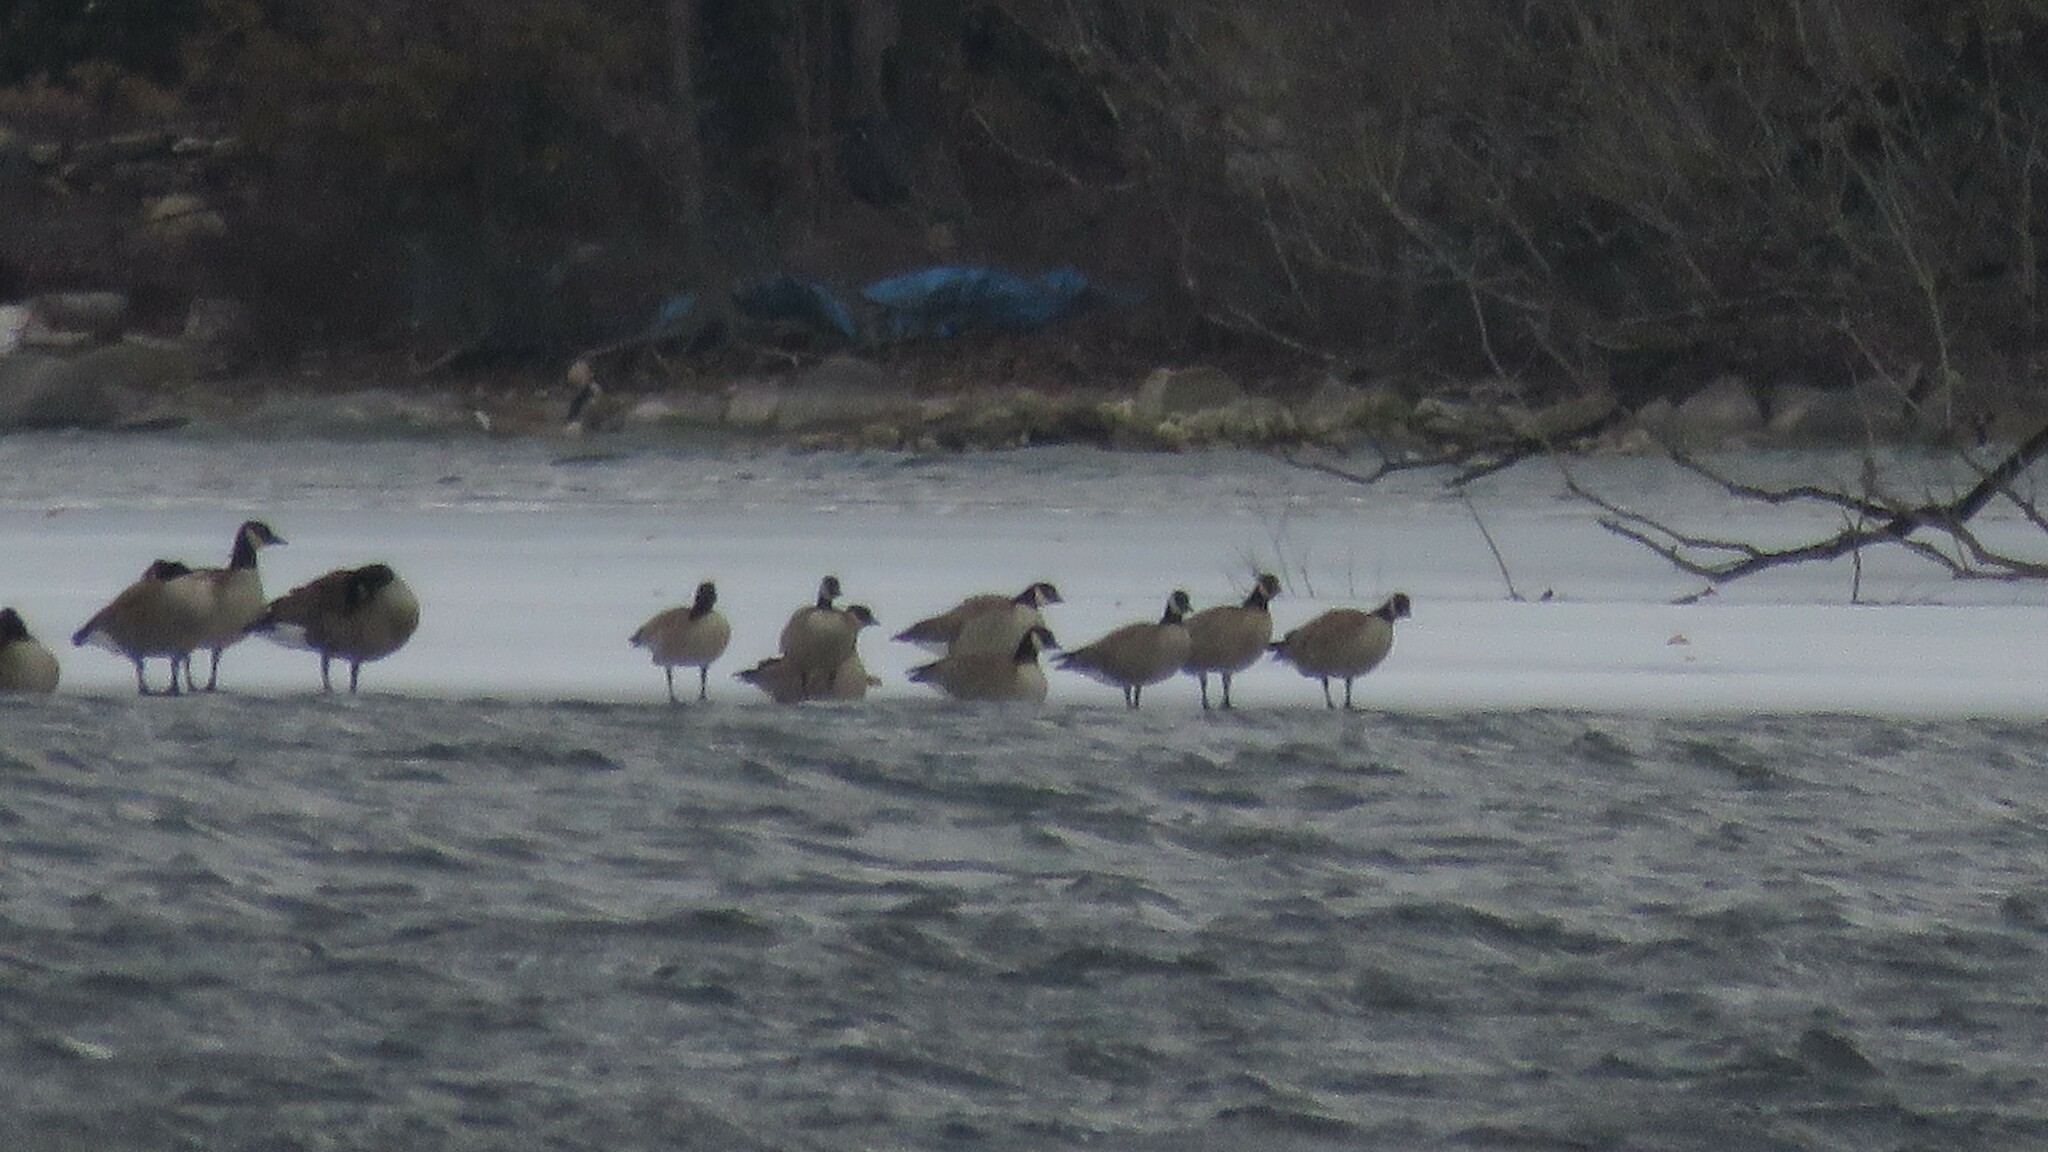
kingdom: Animalia
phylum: Chordata
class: Aves
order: Anseriformes
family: Anatidae
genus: Branta
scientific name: Branta hutchinsii
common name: Cackling goose
